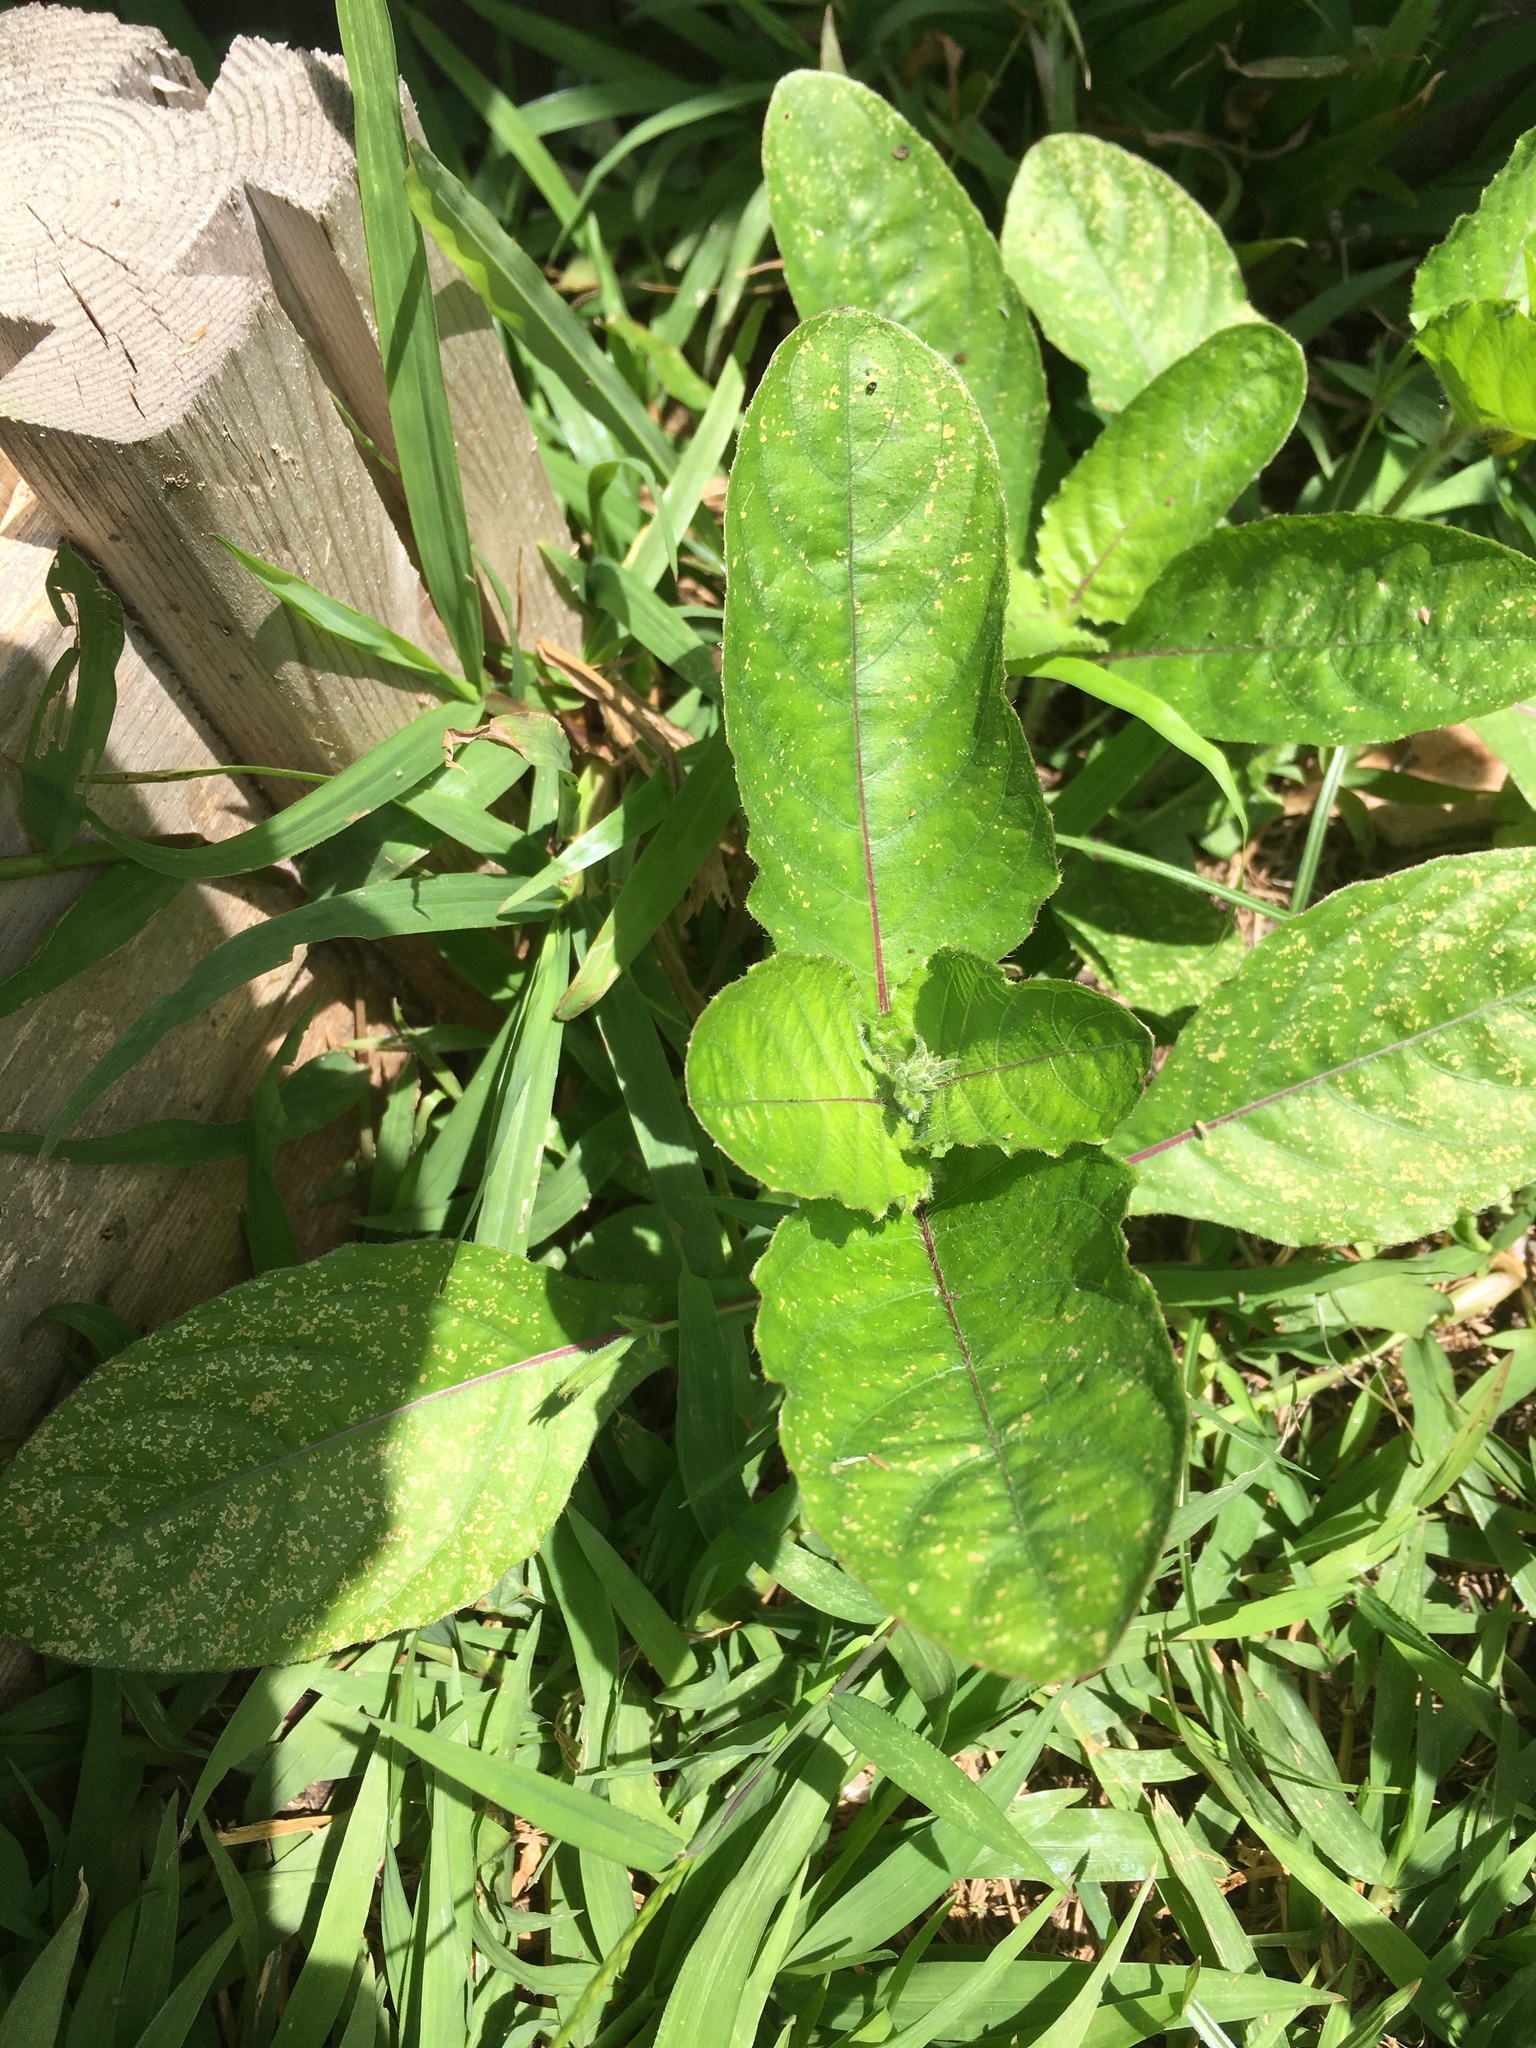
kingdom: Plantae
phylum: Tracheophyta
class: Magnoliopsida
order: Lamiales
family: Acanthaceae
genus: Ruellia
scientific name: Ruellia ciliatiflora
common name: Hairyflower wild petunia
